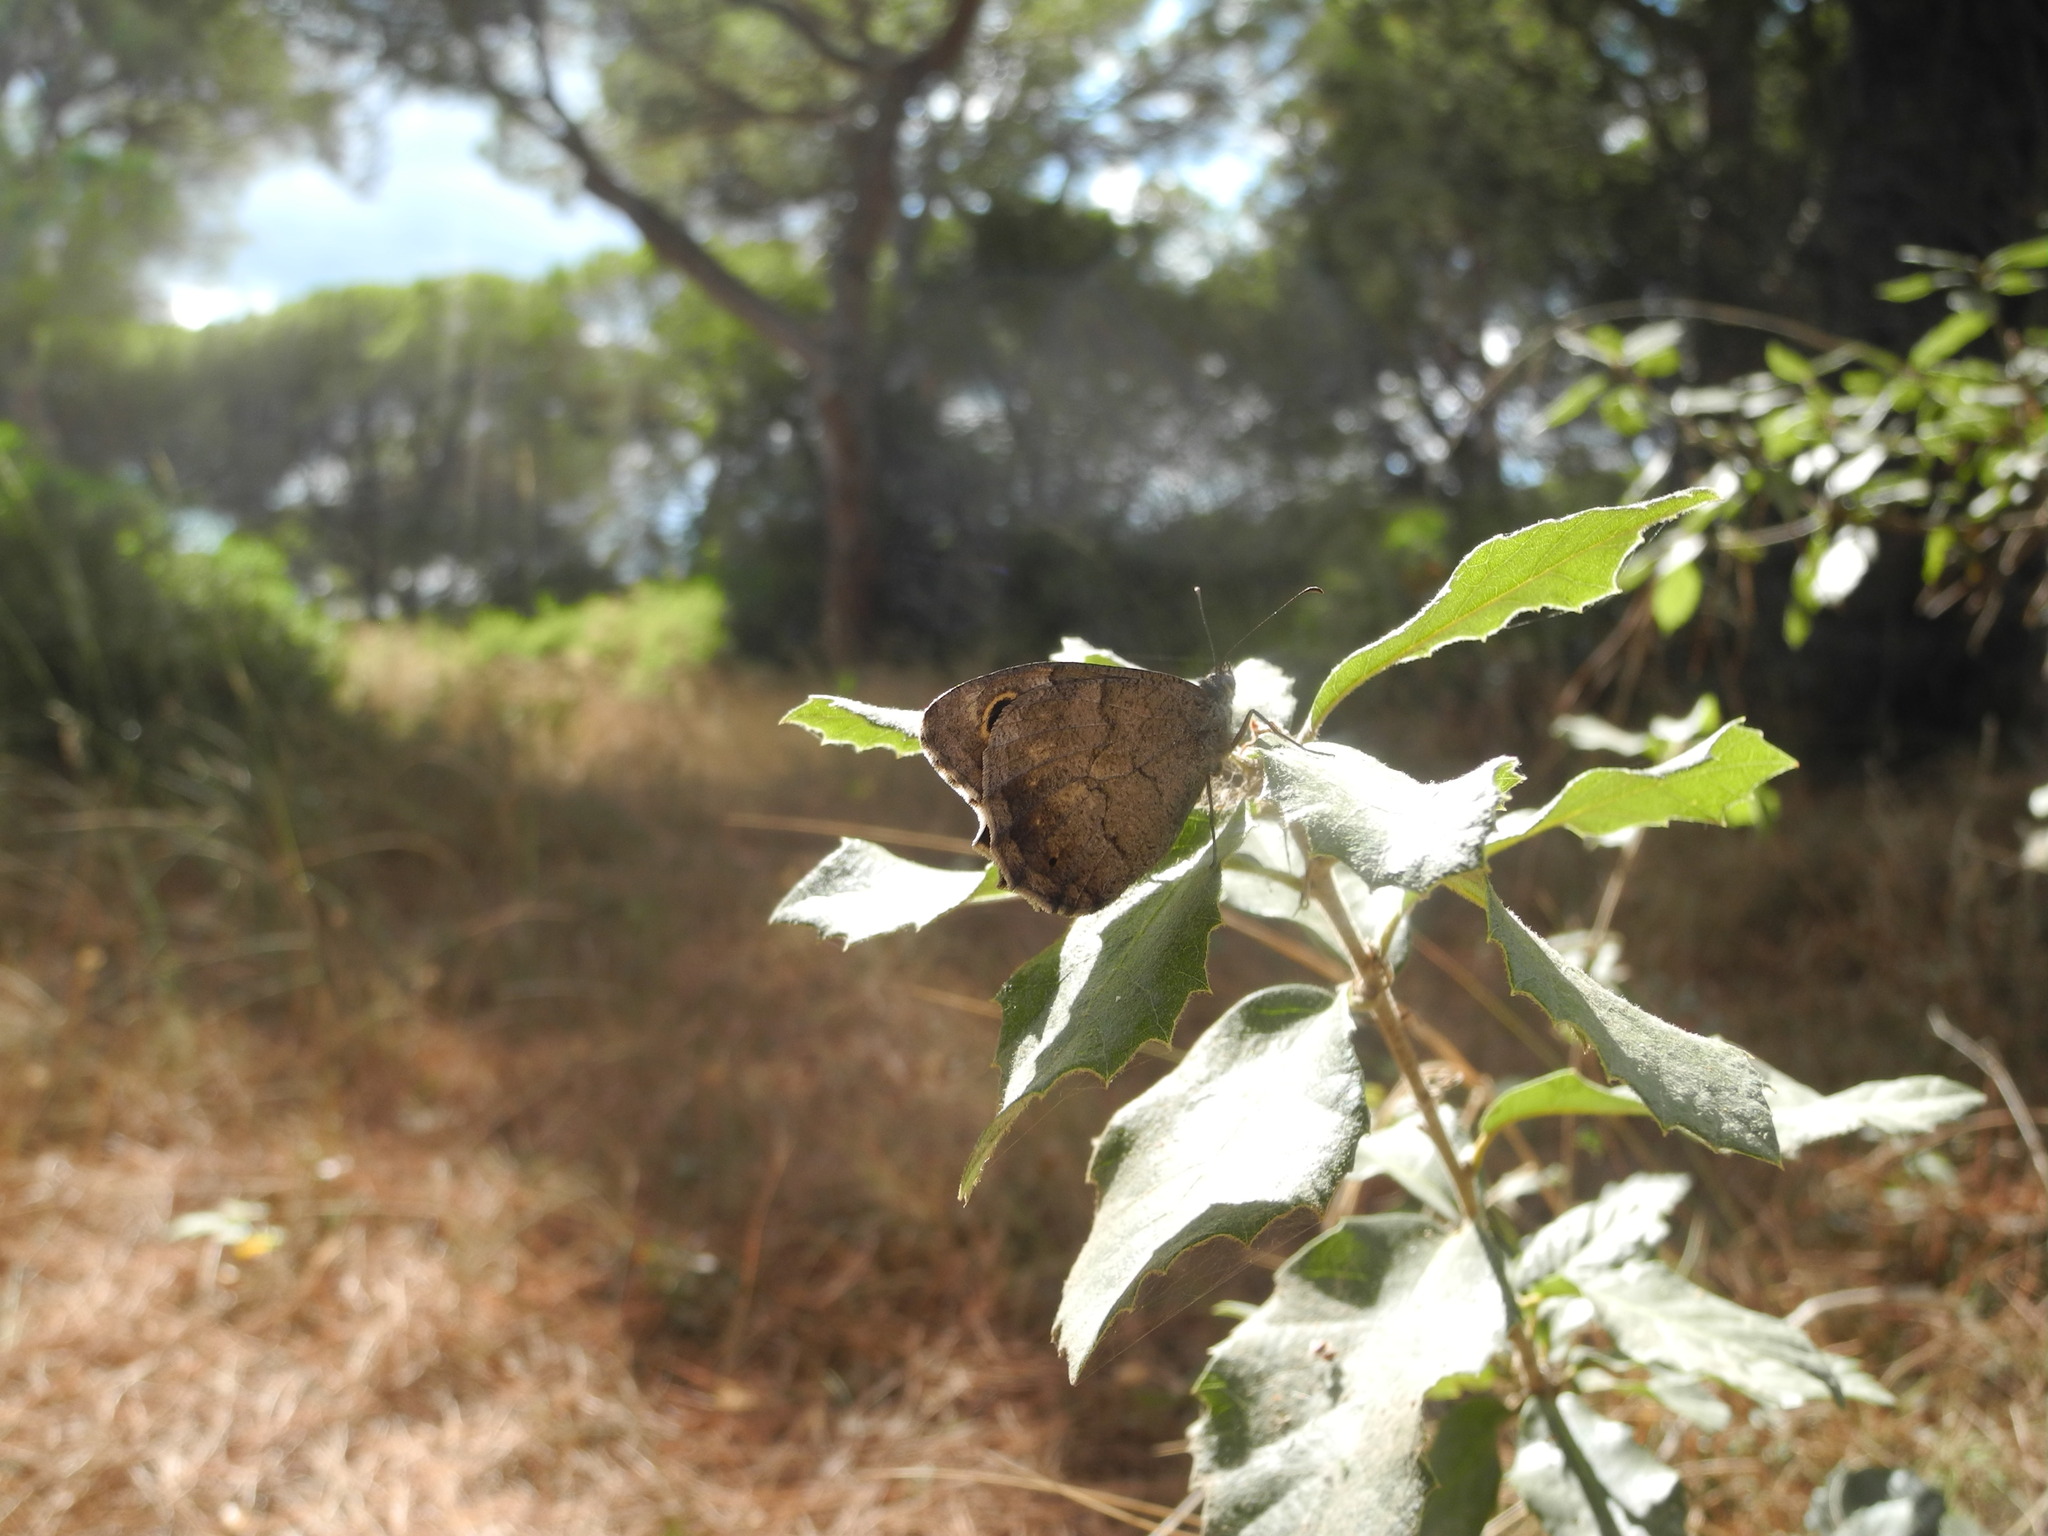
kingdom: Animalia
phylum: Arthropoda
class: Insecta
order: Lepidoptera
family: Nymphalidae
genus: Hipparchia
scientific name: Hipparchia statilinus
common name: Tree grayling
